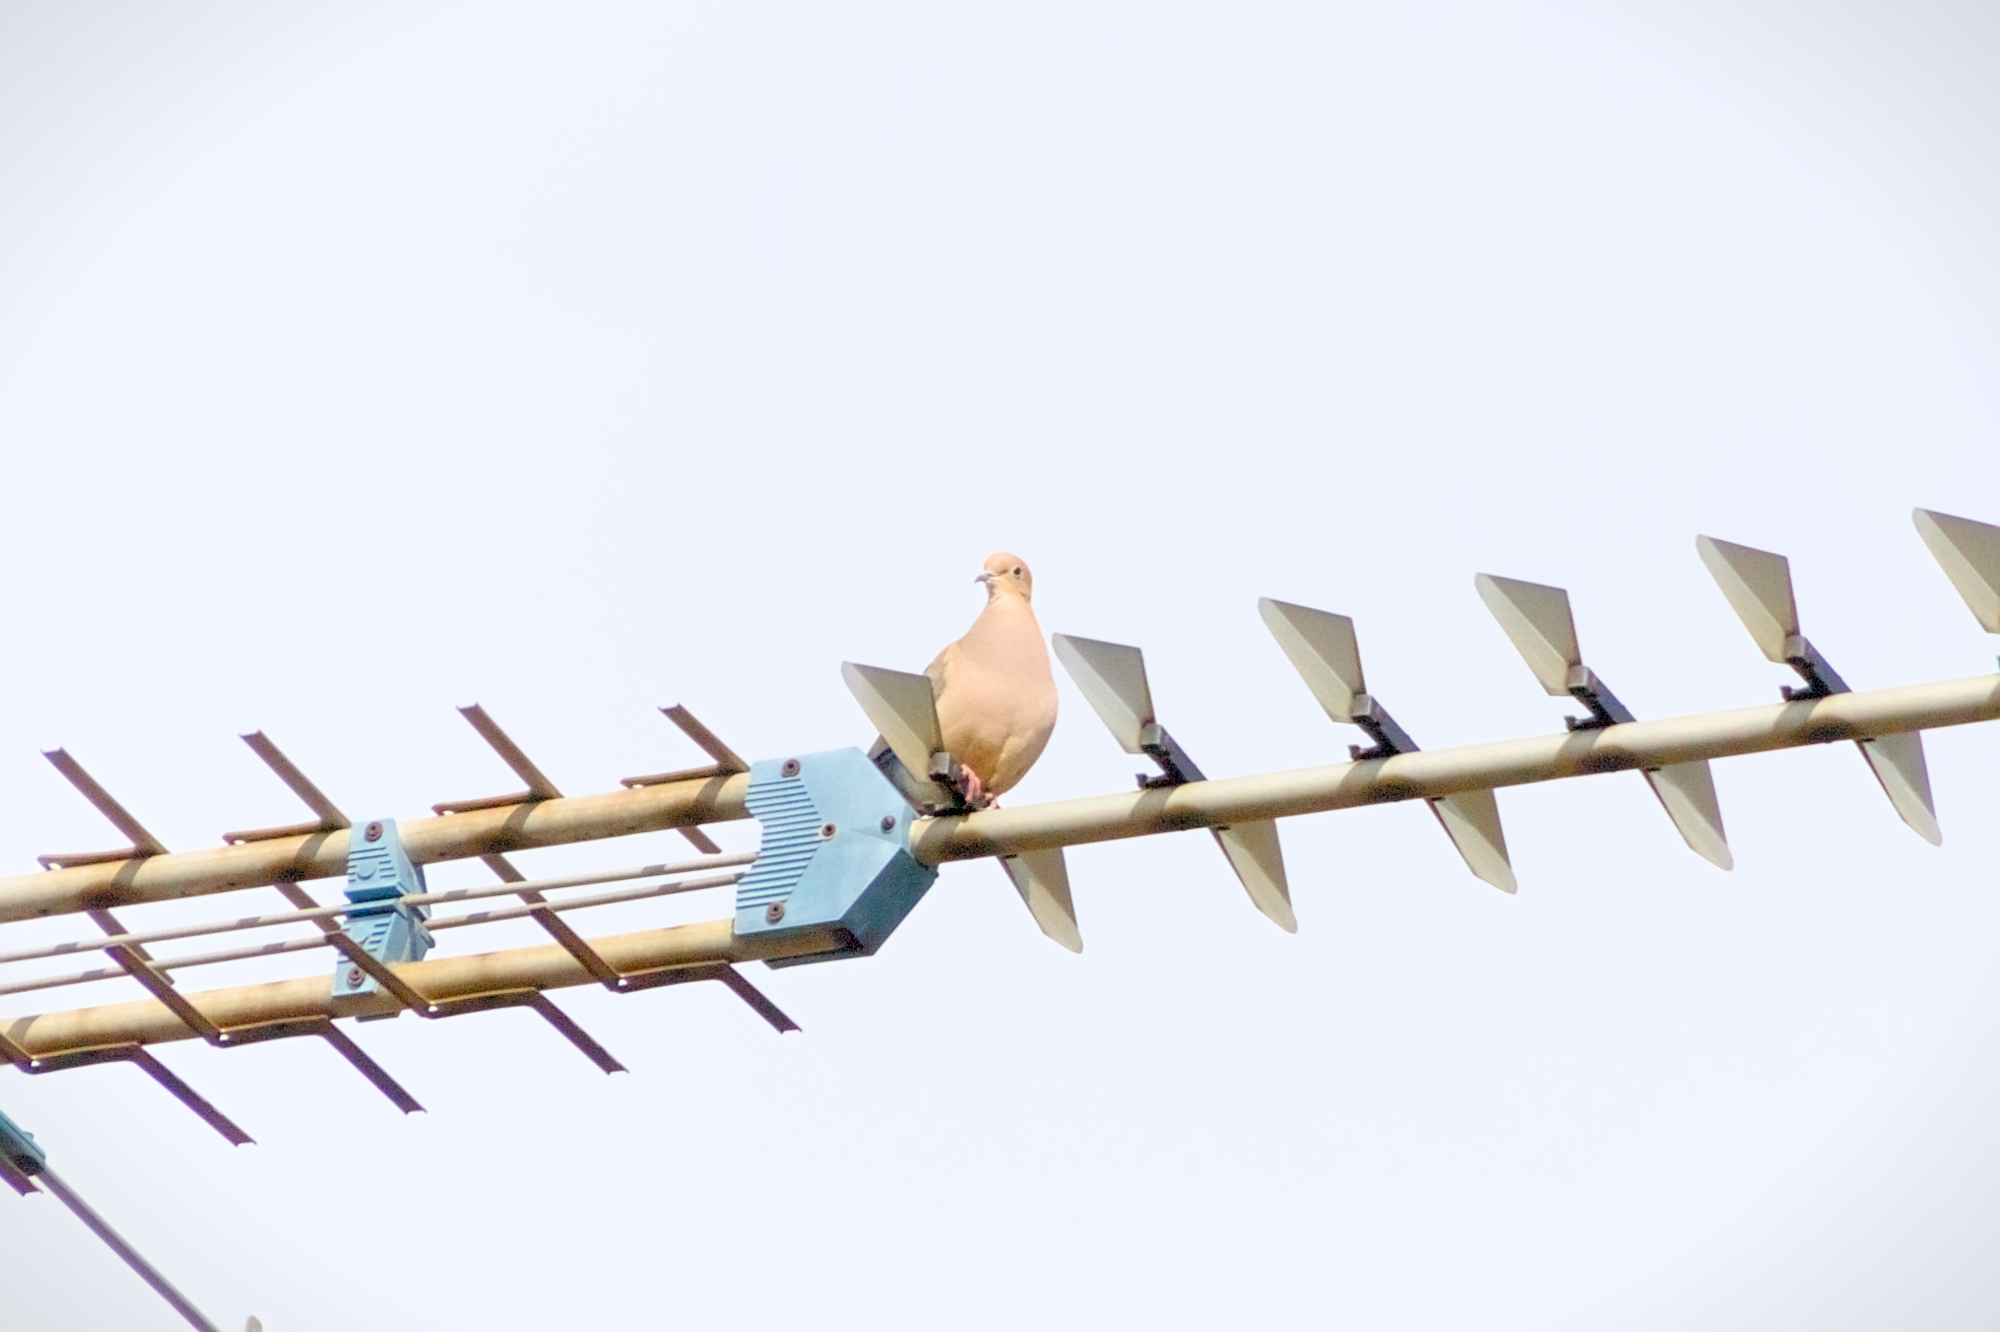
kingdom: Animalia
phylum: Chordata
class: Aves
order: Columbiformes
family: Columbidae
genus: Zenaida
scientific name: Zenaida macroura
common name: Mourning dove
